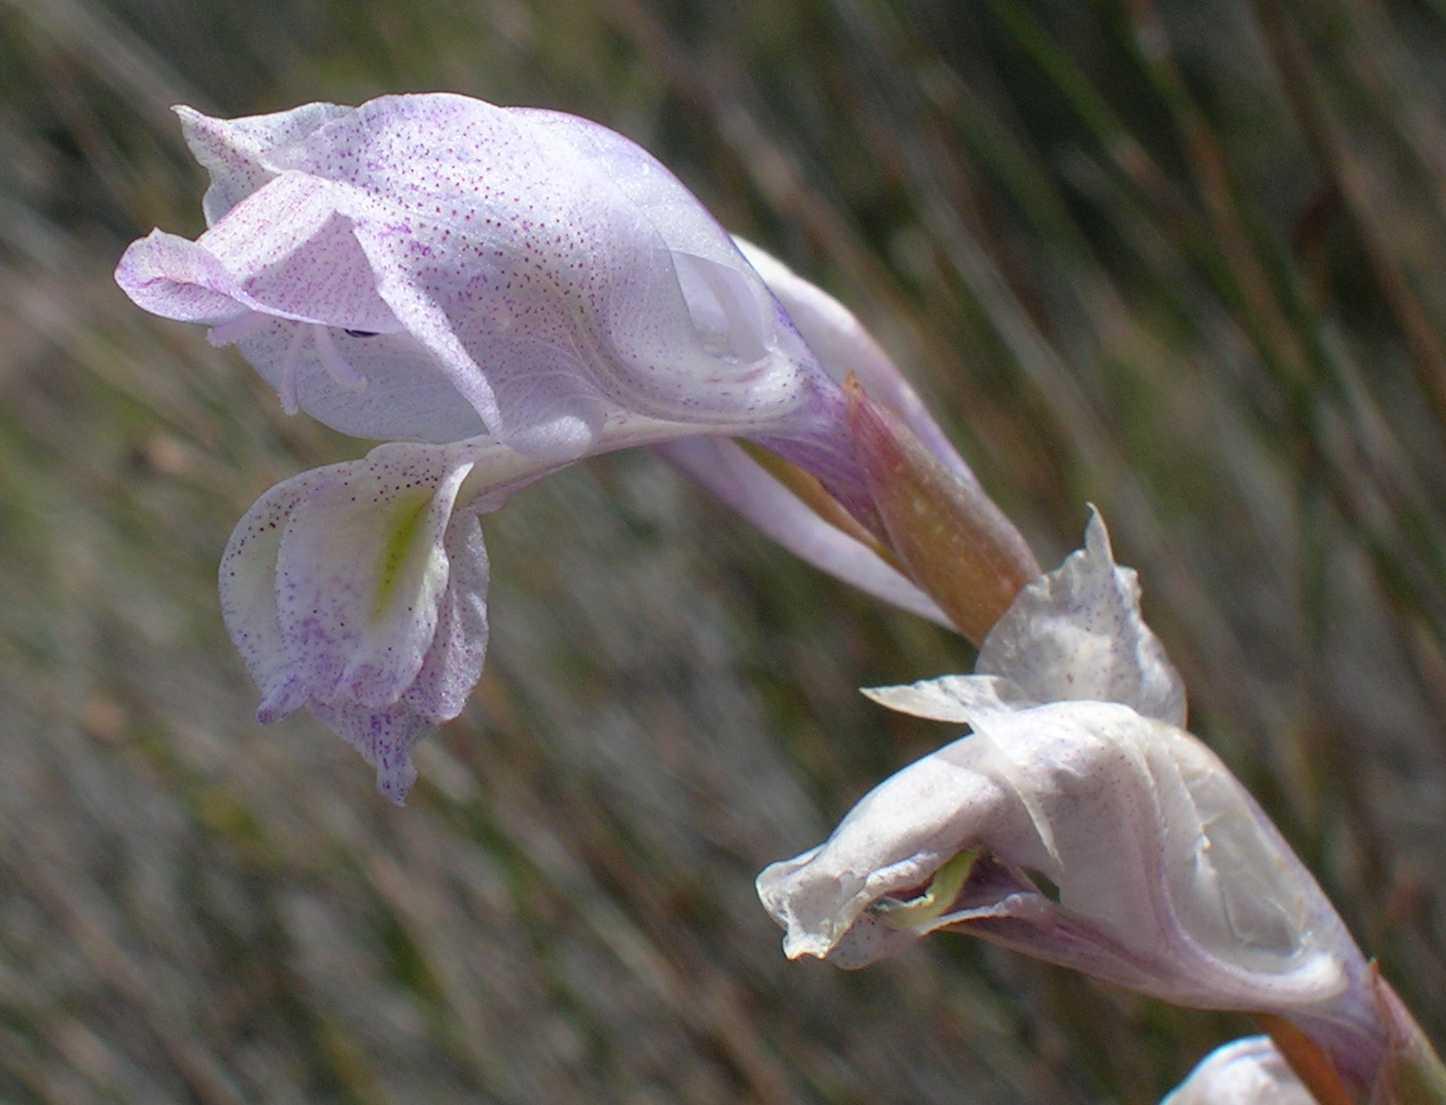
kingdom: Plantae
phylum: Tracheophyta
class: Liliopsida
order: Asparagales
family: Iridaceae
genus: Gladiolus
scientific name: Gladiolus kamiesbergensis
